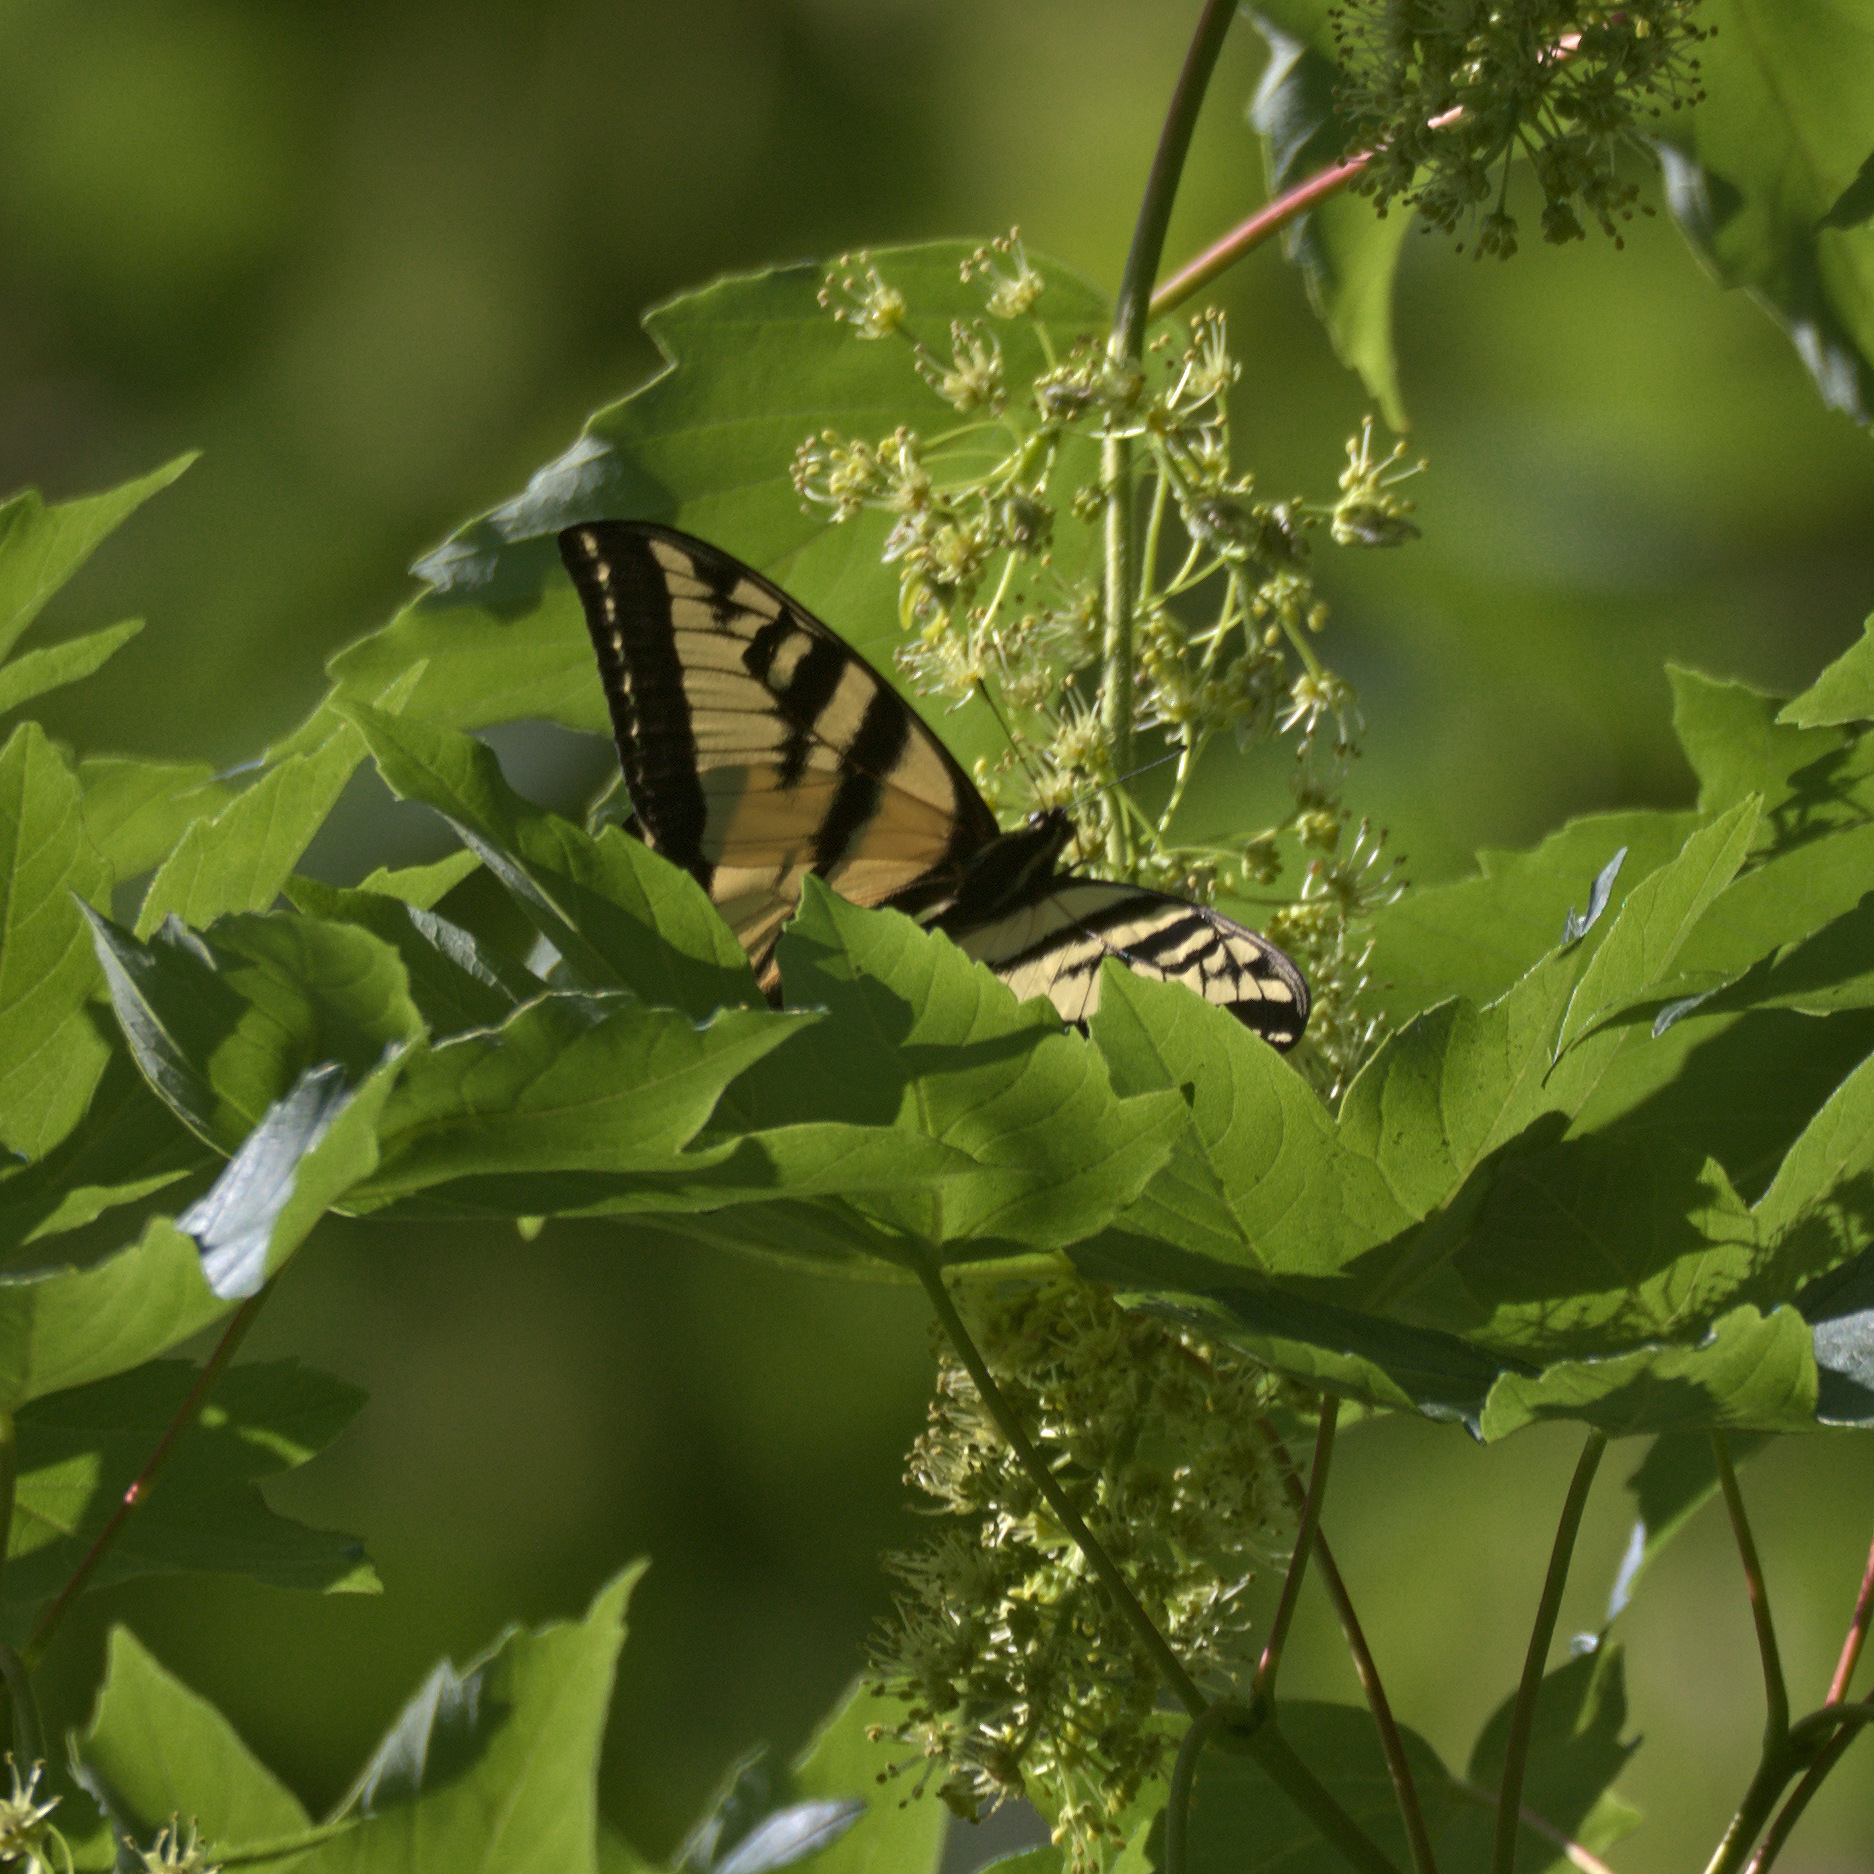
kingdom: Animalia
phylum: Arthropoda
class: Insecta
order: Lepidoptera
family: Papilionidae
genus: Papilio
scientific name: Papilio rutulus
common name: Western tiger swallowtail
